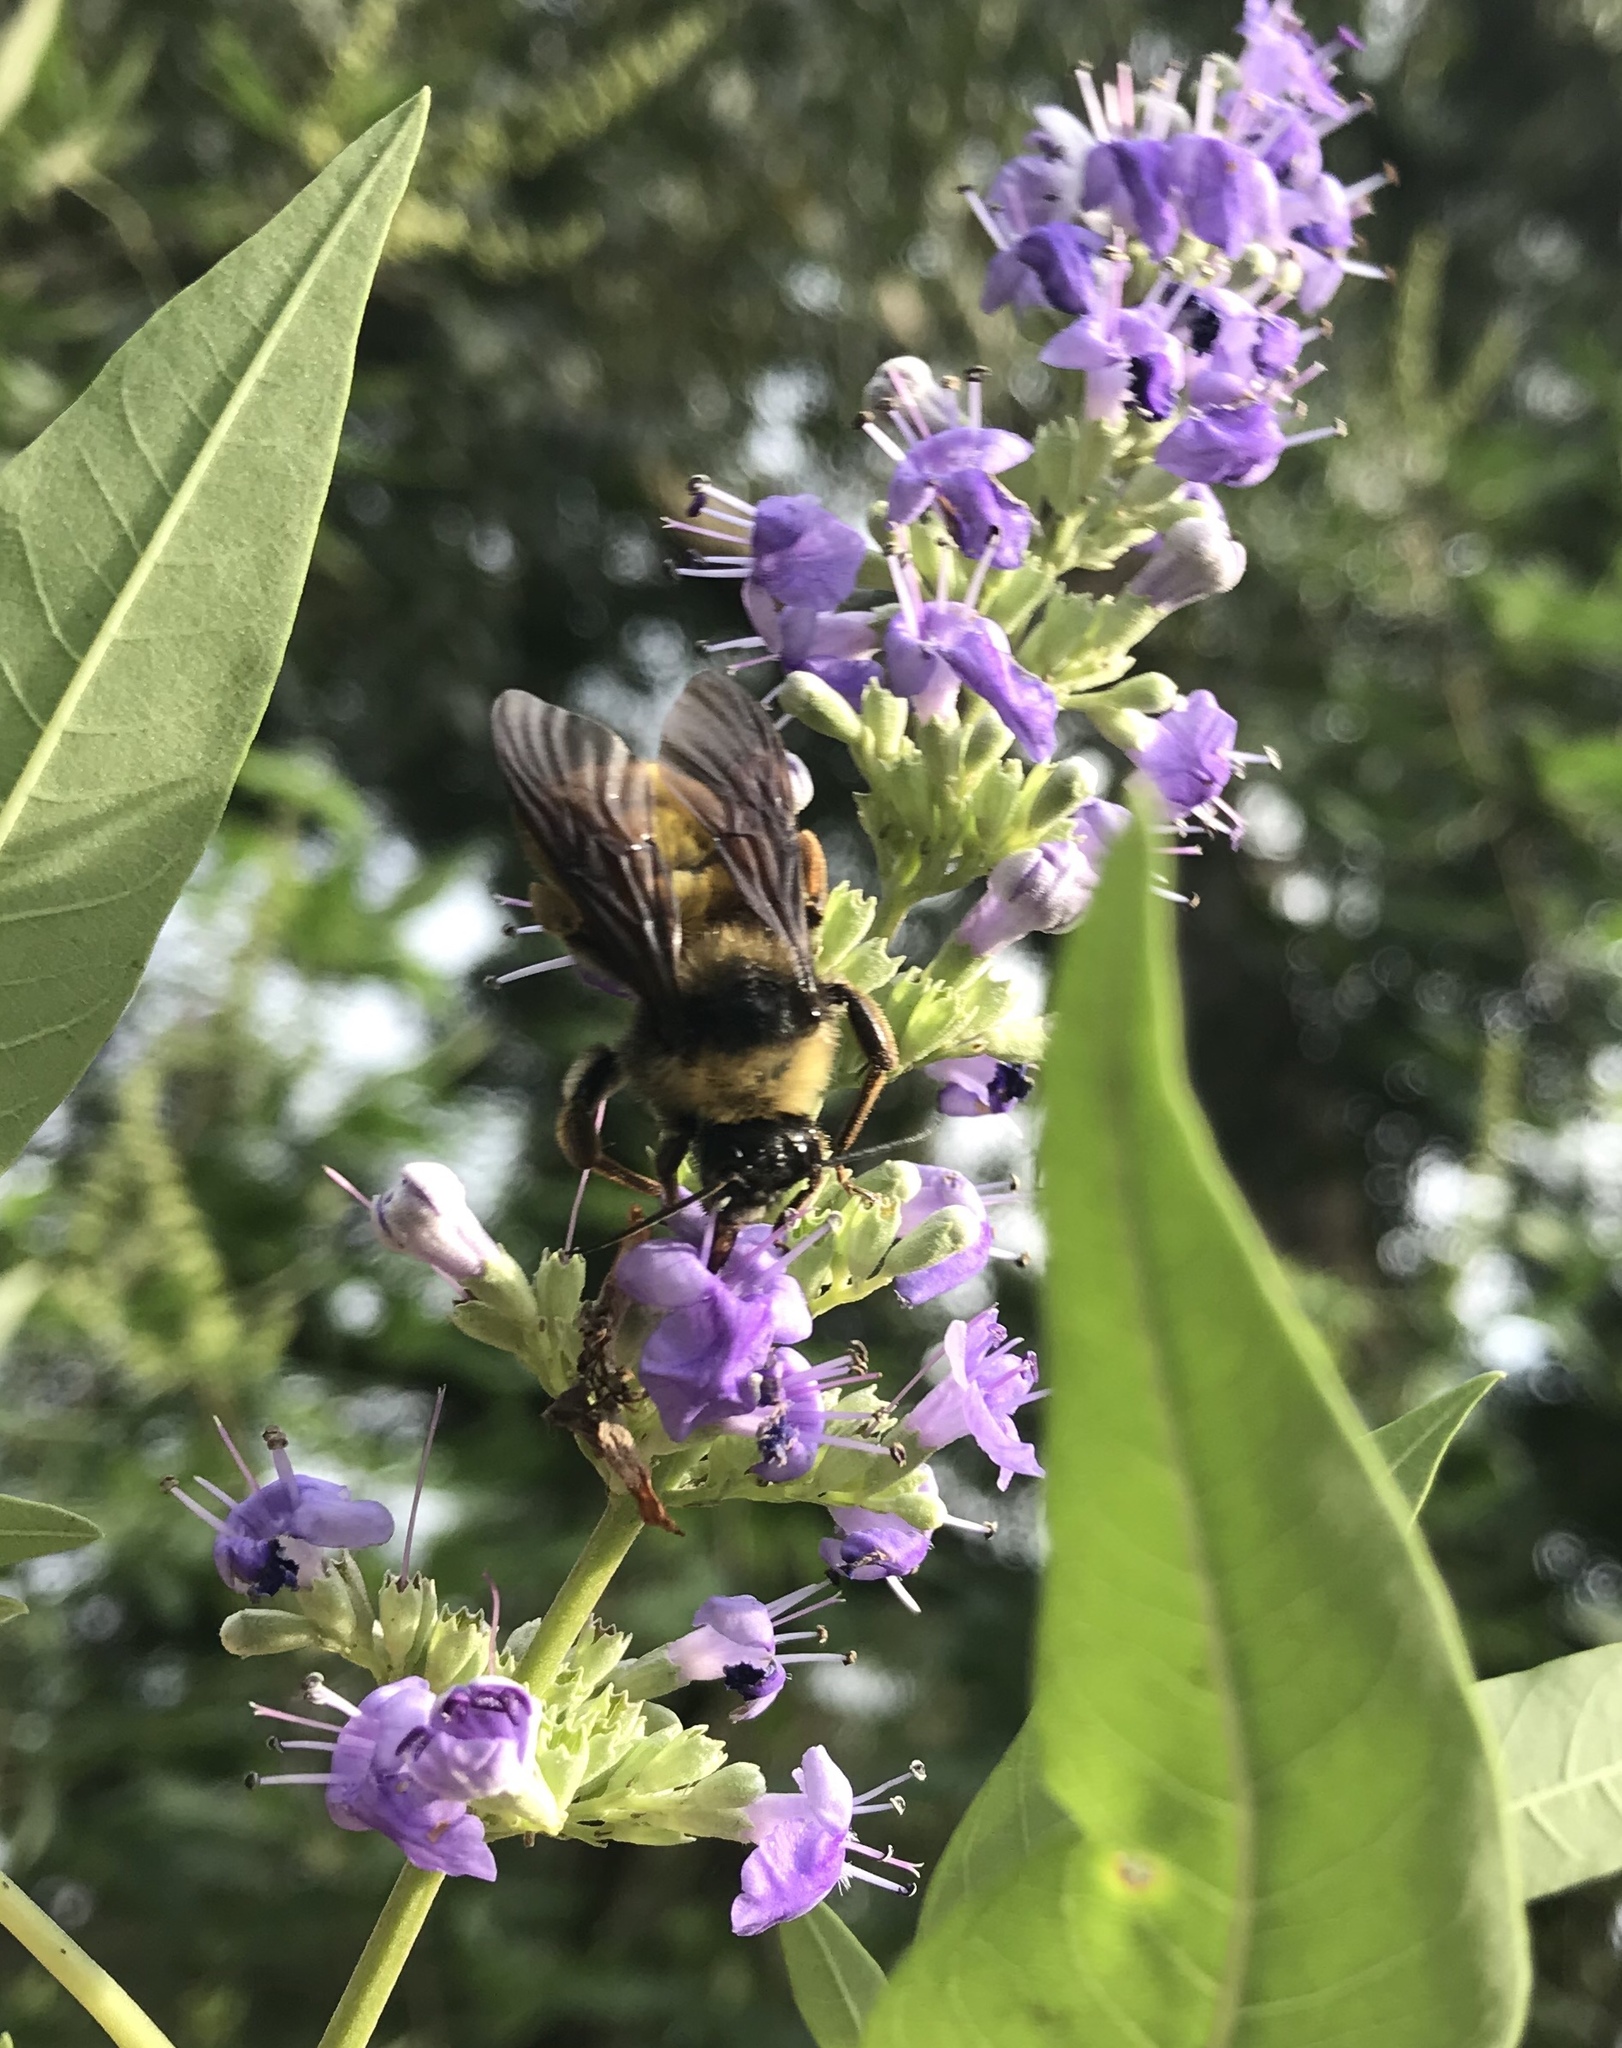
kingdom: Animalia
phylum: Arthropoda
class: Insecta
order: Hymenoptera
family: Apidae
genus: Bombus
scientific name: Bombus pensylvanicus
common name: Bumble bee
